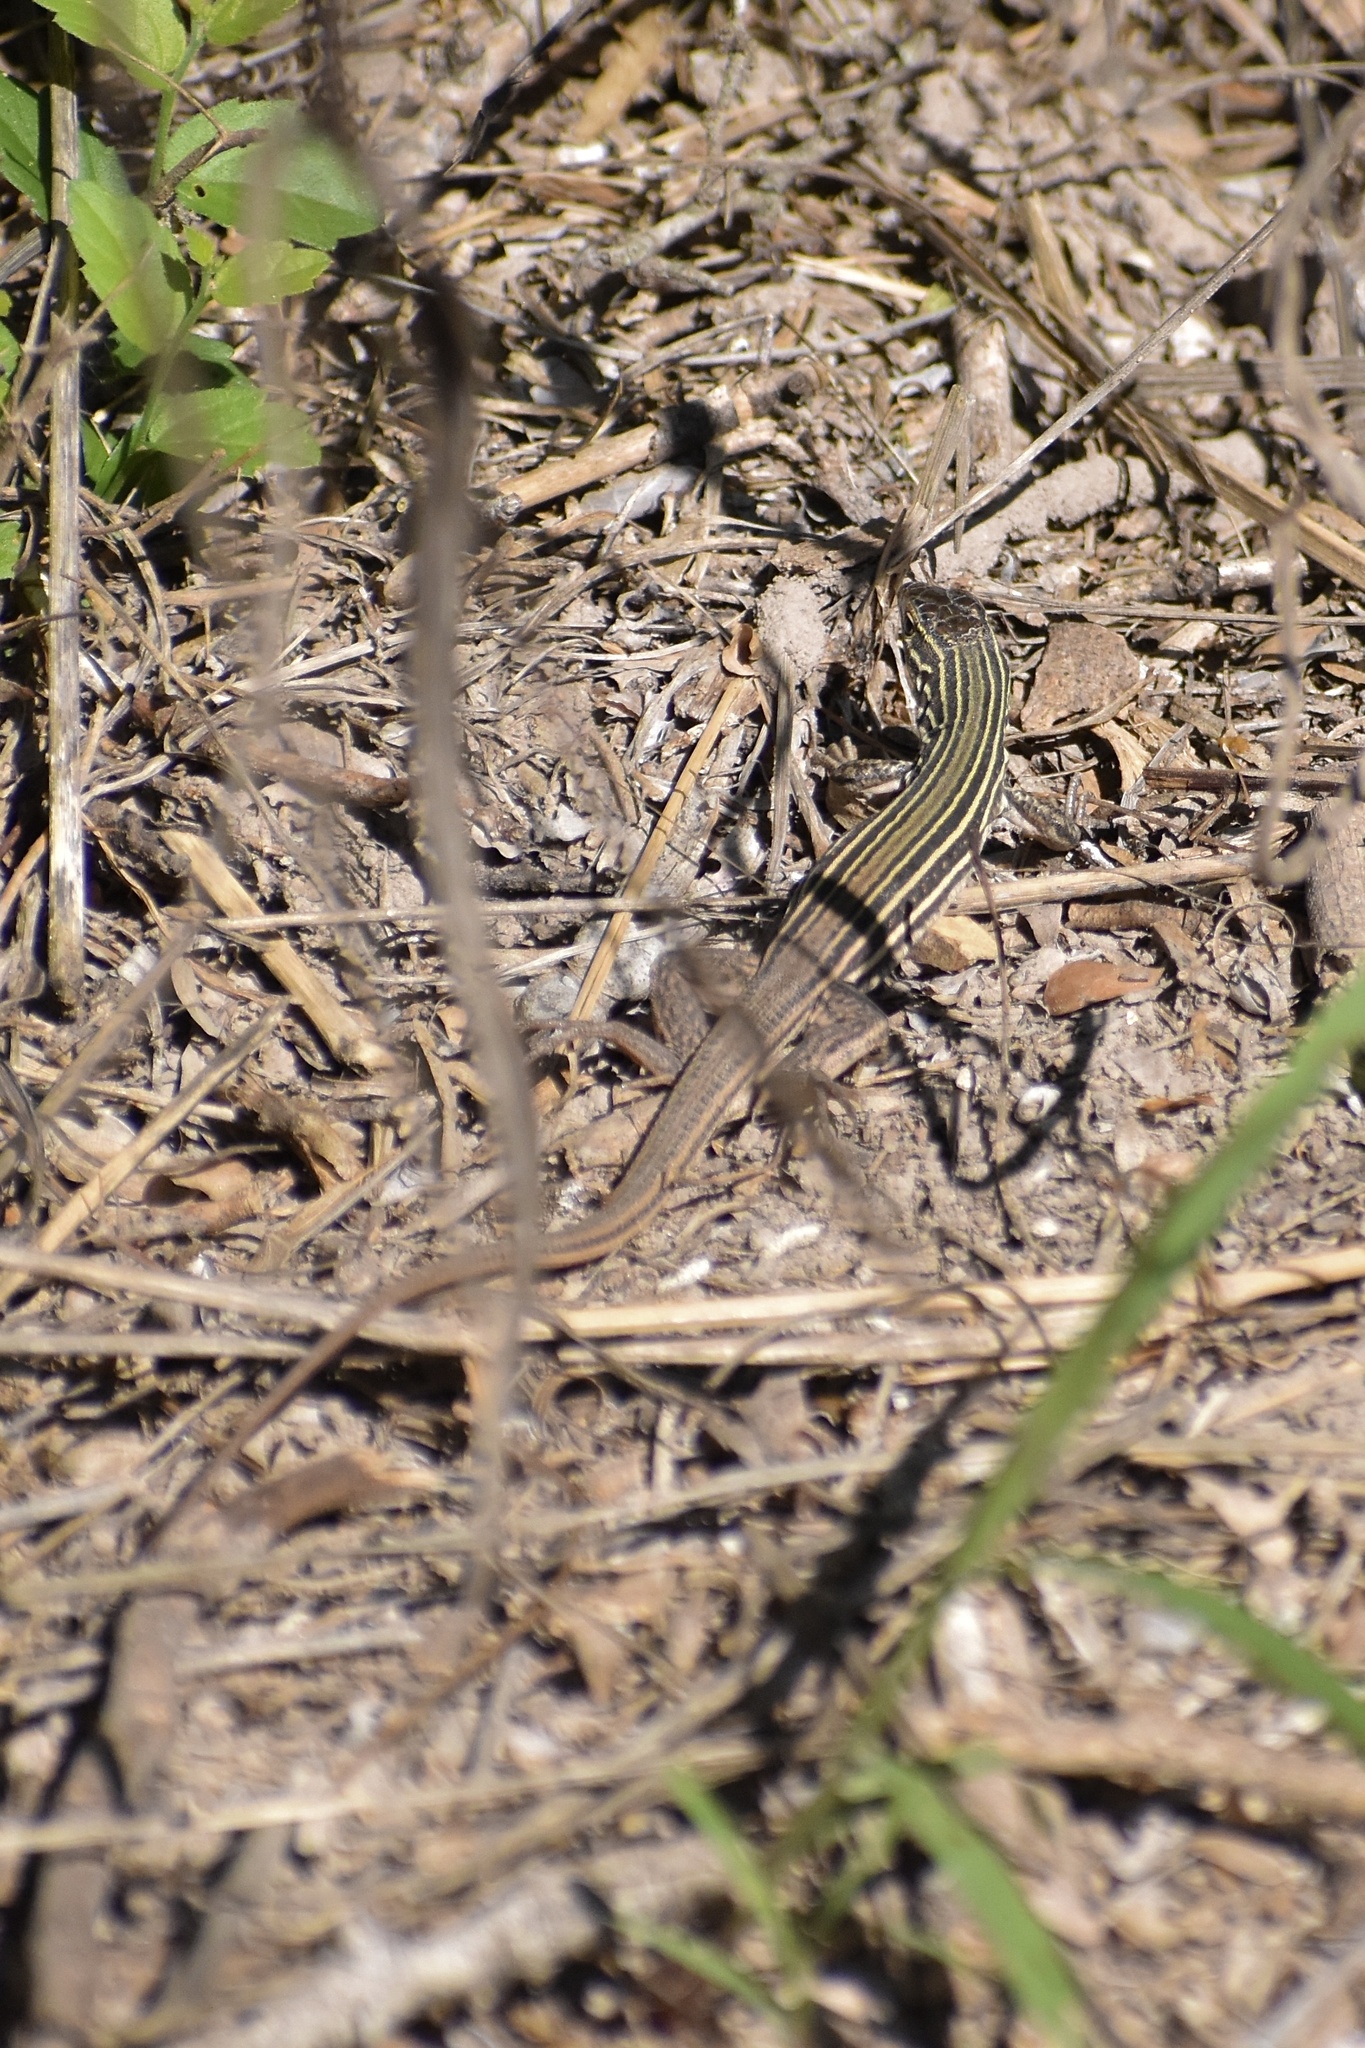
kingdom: Animalia
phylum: Chordata
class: Squamata
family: Teiidae
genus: Aspidoscelis
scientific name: Aspidoscelis gularis
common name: Eastern spotted whiptail
